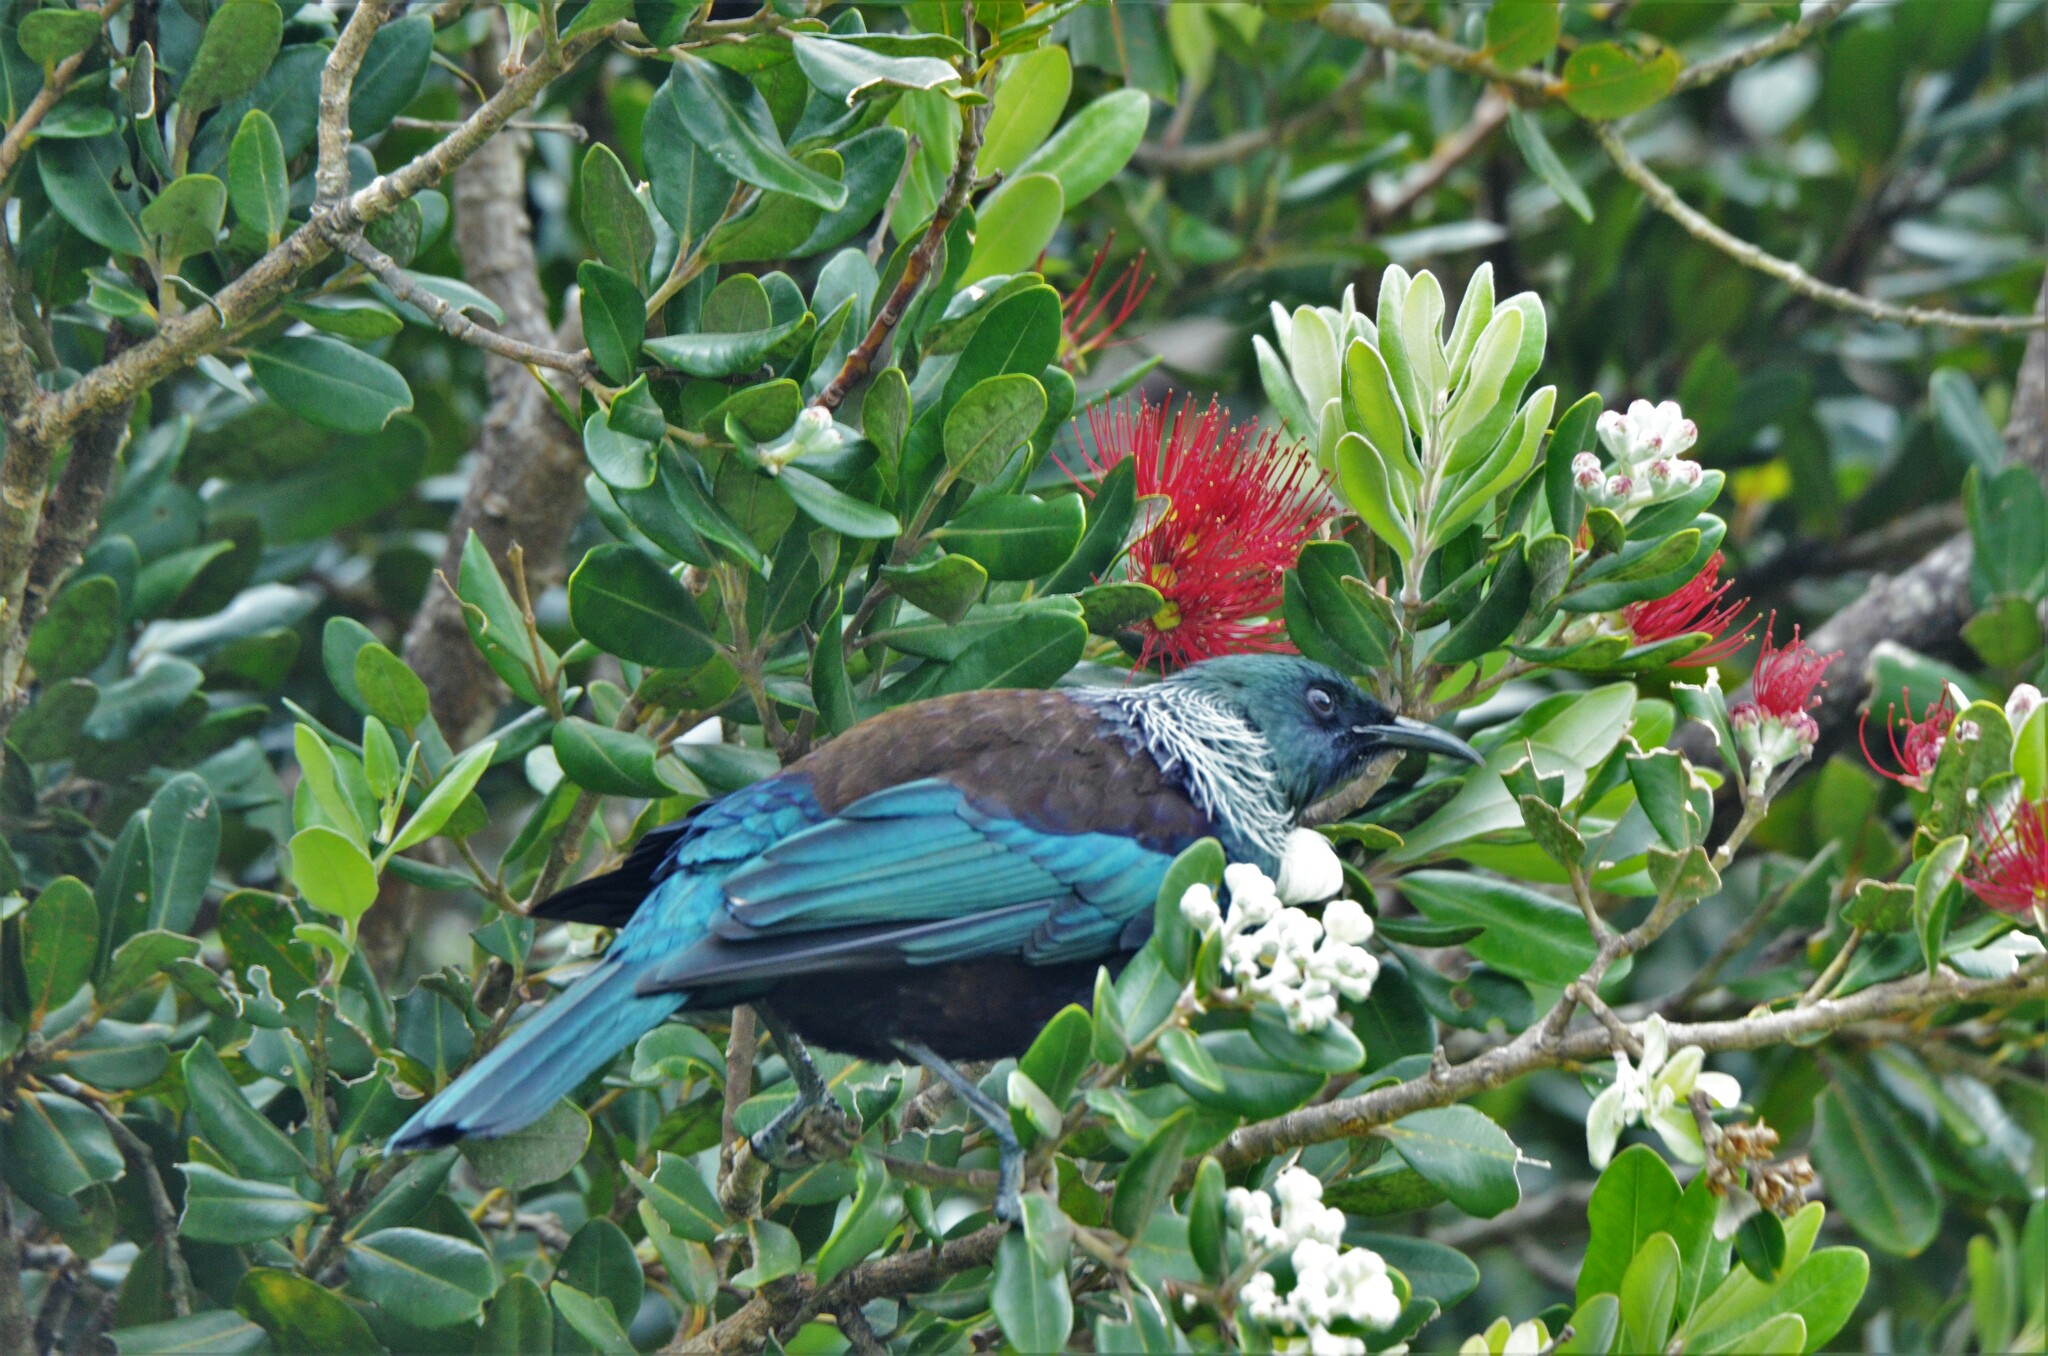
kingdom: Animalia
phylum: Chordata
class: Aves
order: Passeriformes
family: Meliphagidae
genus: Prosthemadera
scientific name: Prosthemadera novaeseelandiae
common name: Tui
